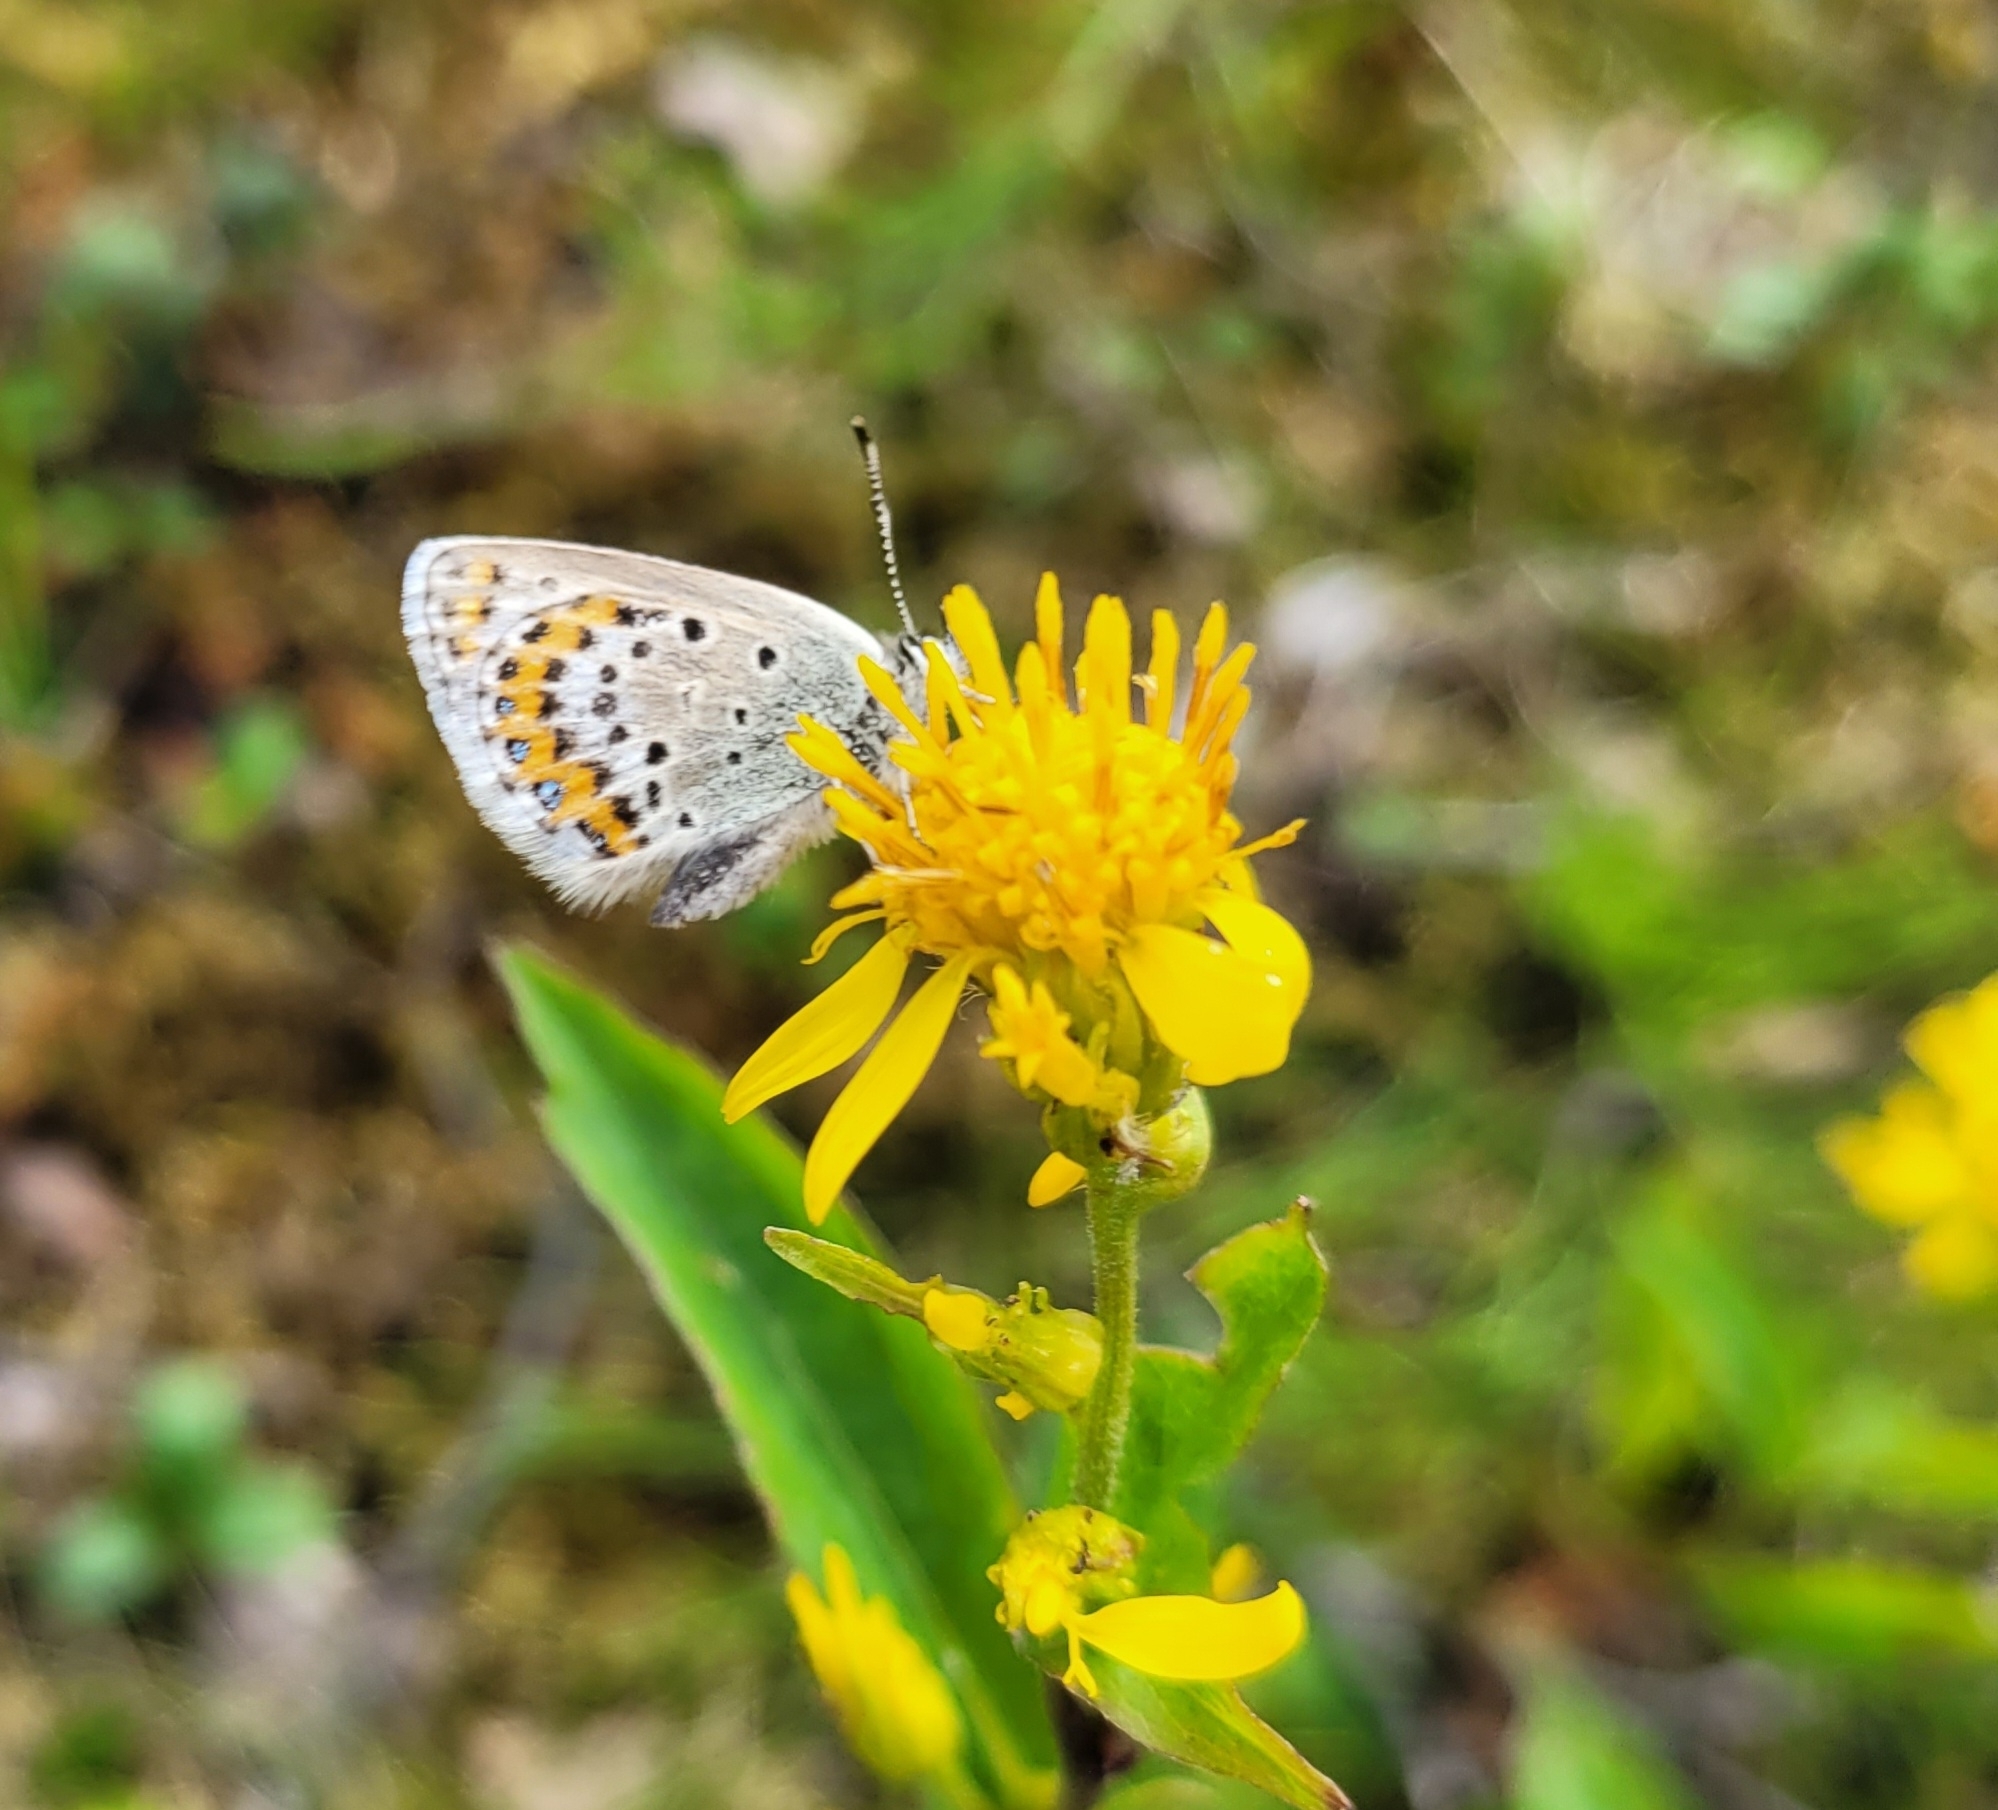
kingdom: Animalia
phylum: Arthropoda
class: Insecta
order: Lepidoptera
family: Lycaenidae
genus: Lycaeides
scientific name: Lycaeides idas
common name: Northern blue
